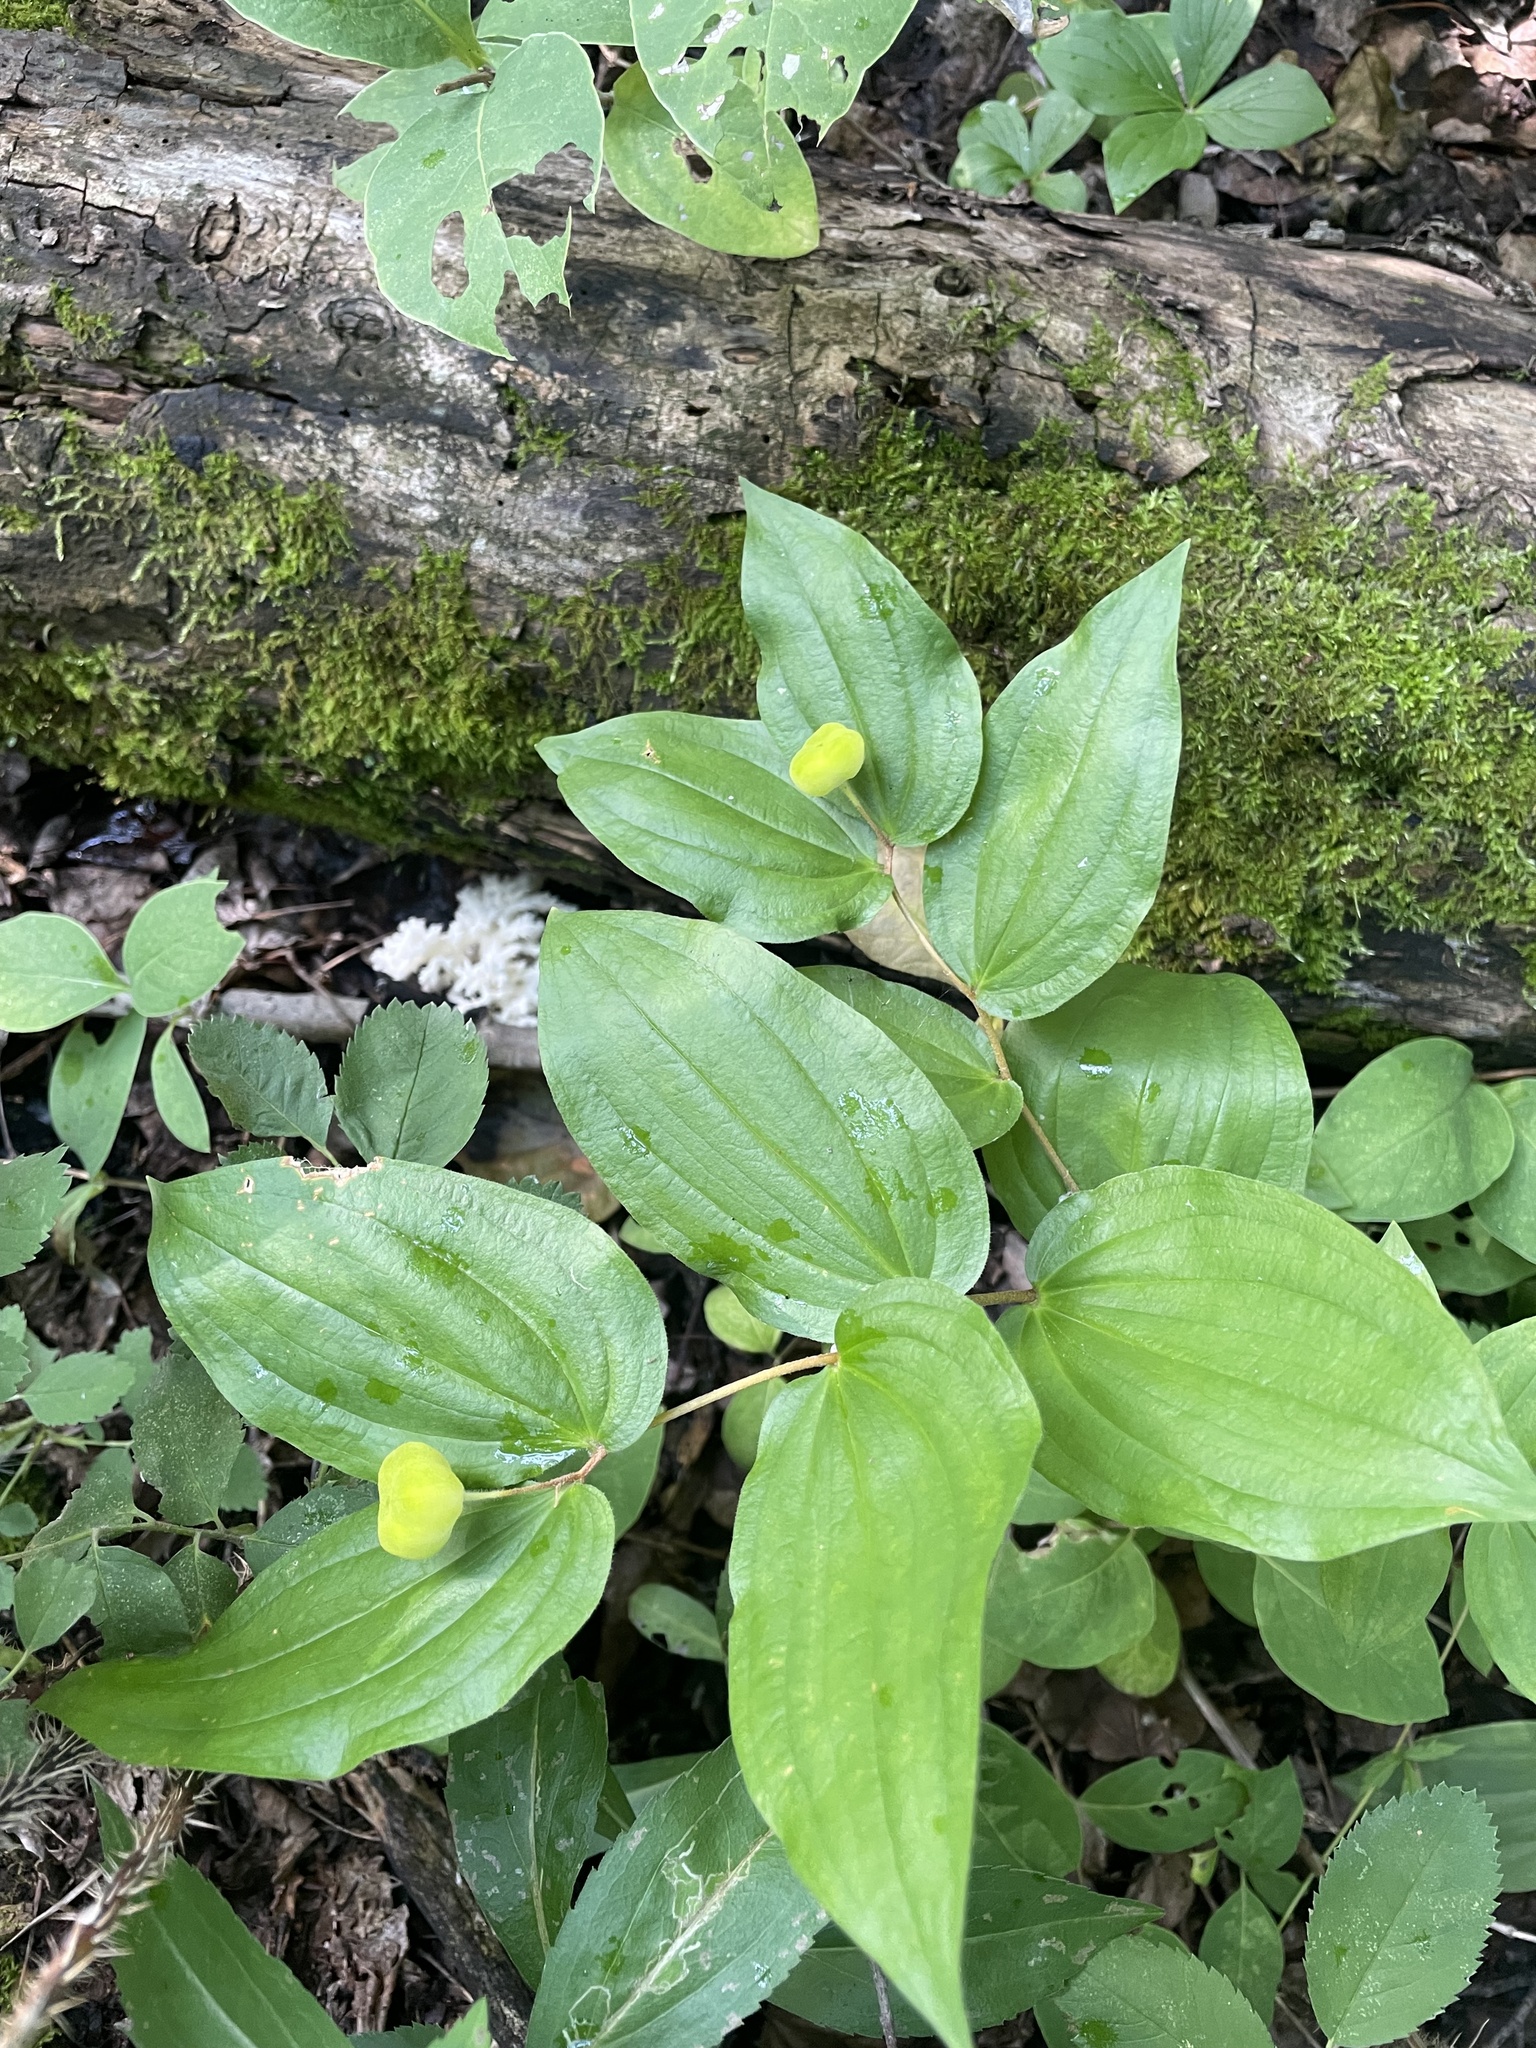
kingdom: Plantae
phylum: Tracheophyta
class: Liliopsida
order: Liliales
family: Liliaceae
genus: Prosartes
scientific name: Prosartes trachycarpa
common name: Rough-fruit fairy-bells
